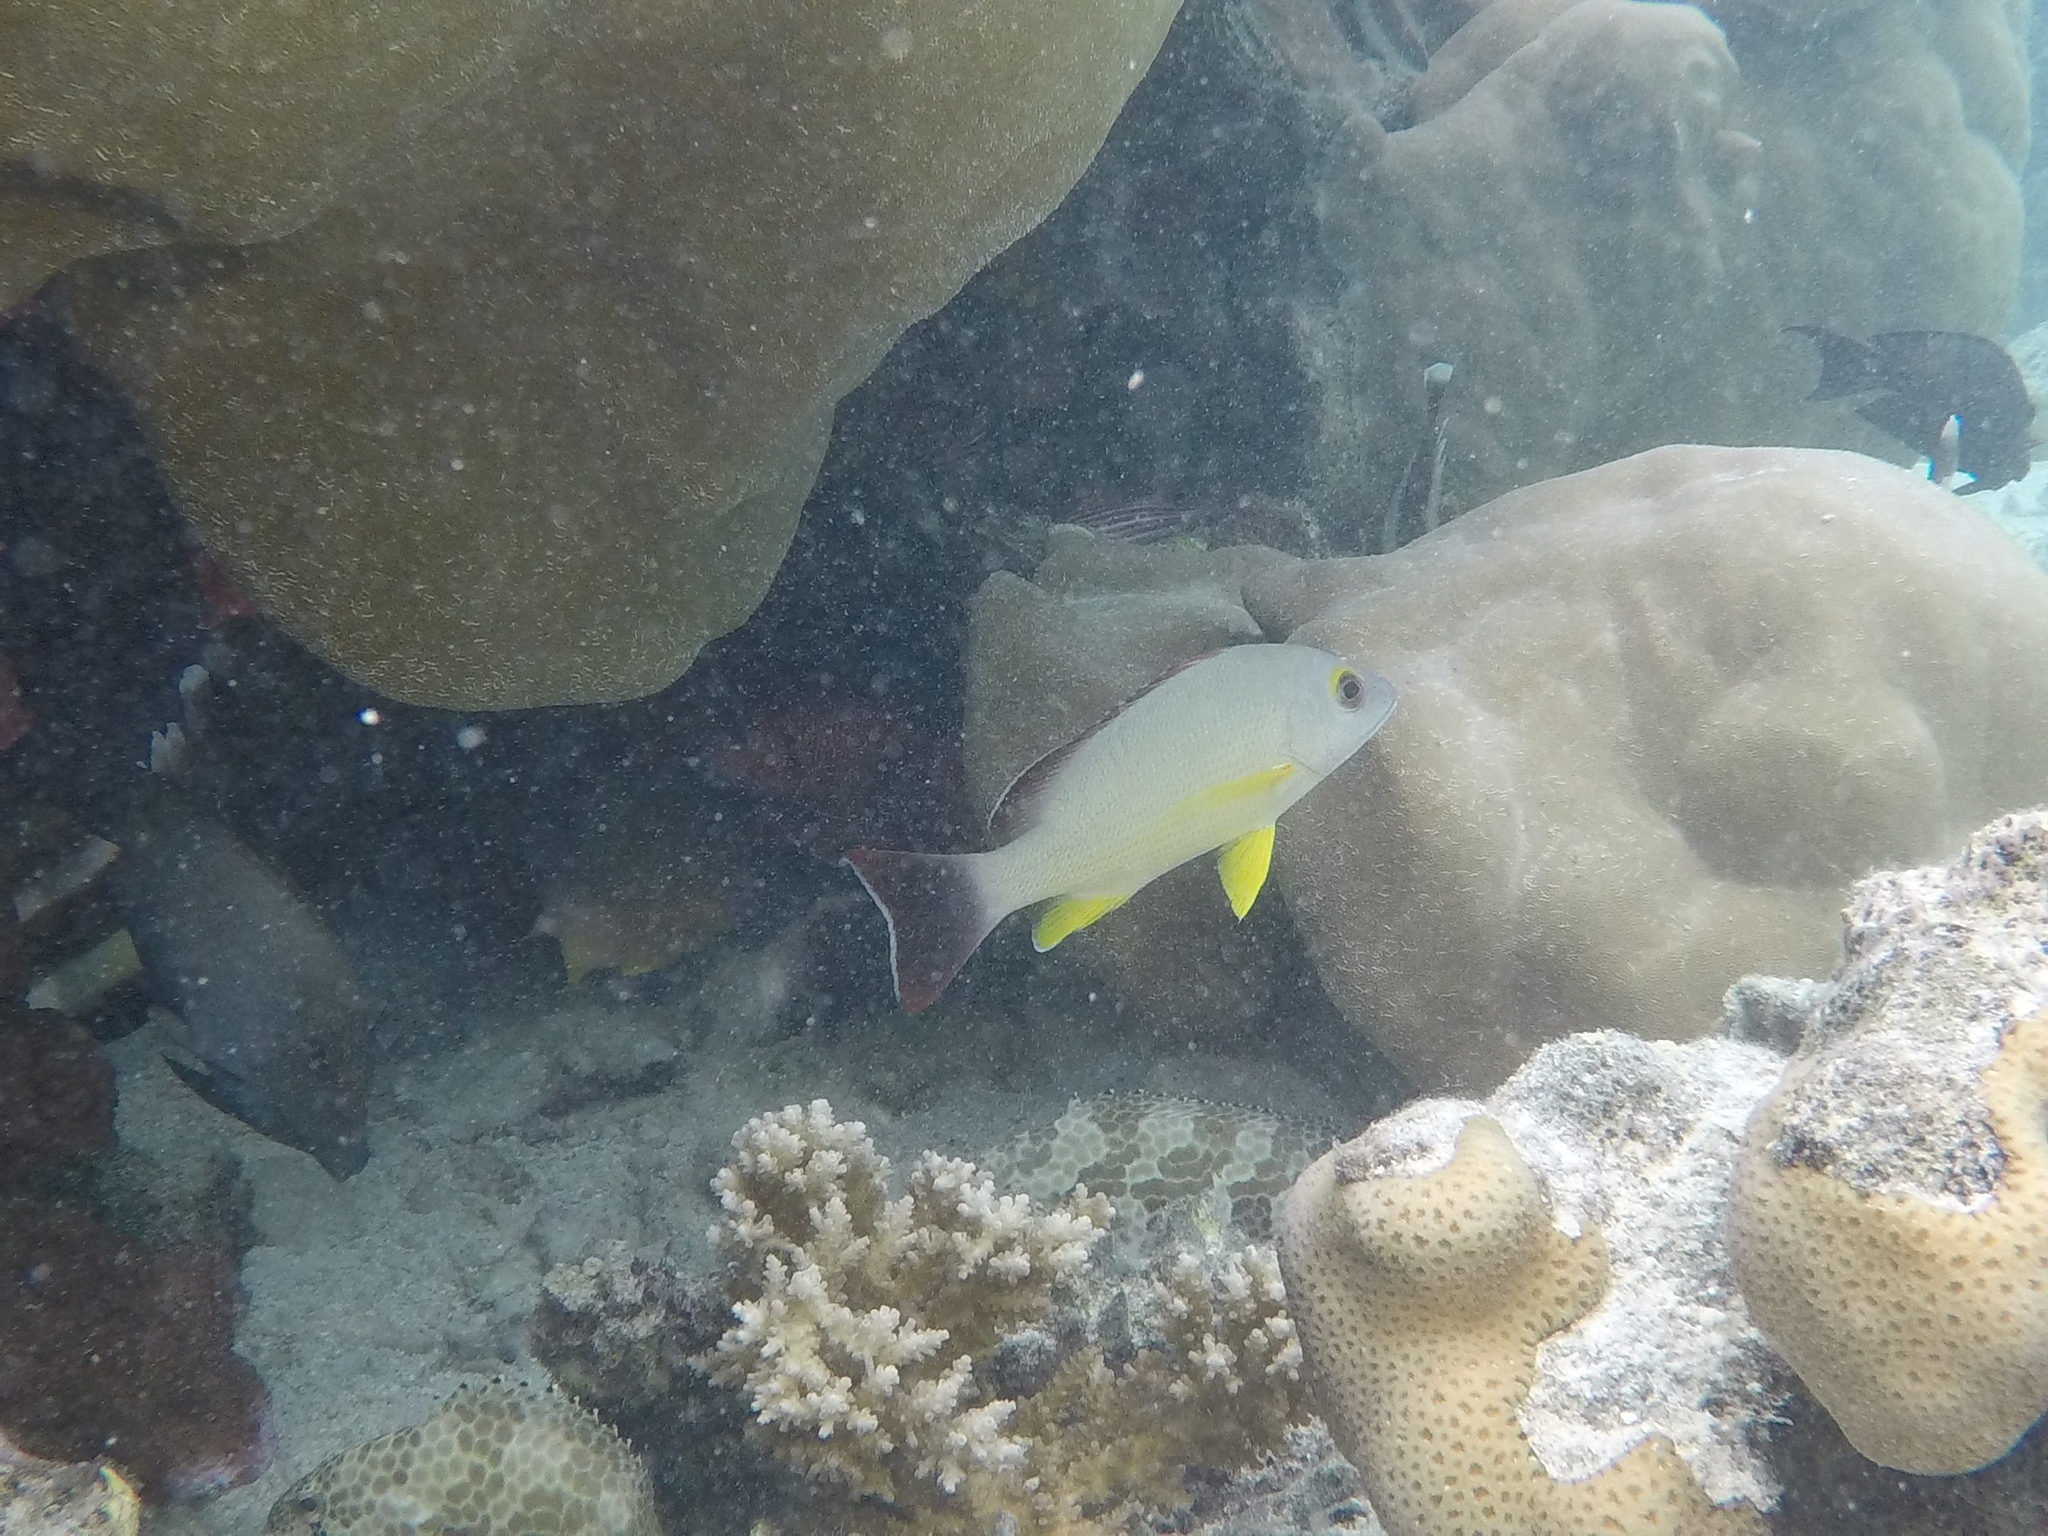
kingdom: Animalia
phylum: Chordata
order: Perciformes
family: Lutjanidae
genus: Lutjanus
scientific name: Lutjanus fulvus
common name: Blacktail snapper
